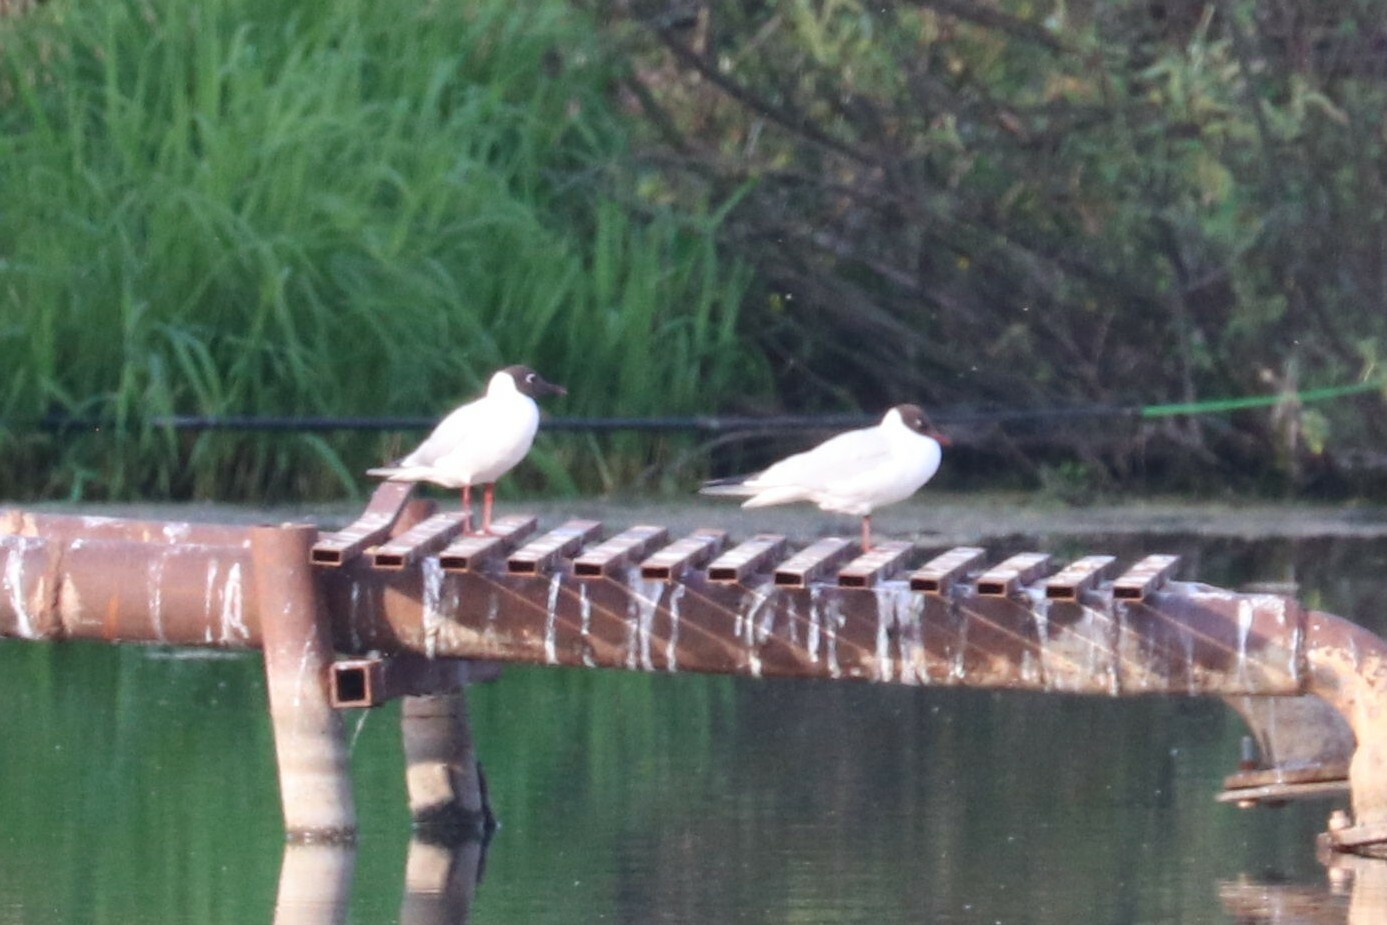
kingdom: Animalia
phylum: Chordata
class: Aves
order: Charadriiformes
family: Laridae
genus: Chroicocephalus
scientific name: Chroicocephalus ridibundus
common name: Black-headed gull
